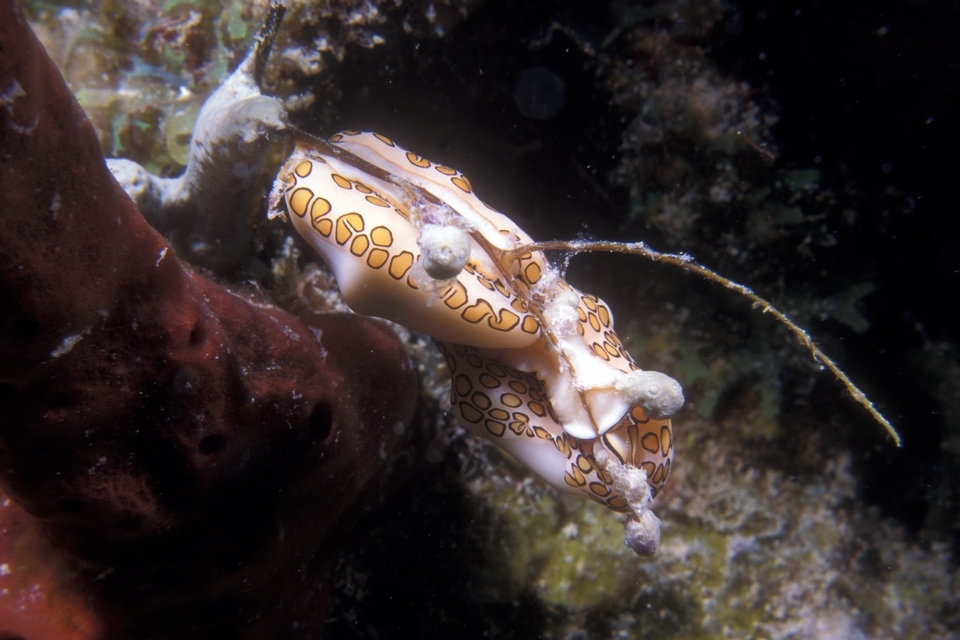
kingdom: Animalia
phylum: Mollusca
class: Gastropoda
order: Littorinimorpha
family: Ovulidae
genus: Cyphoma
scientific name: Cyphoma gibbosum
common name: Flamingo tongue
